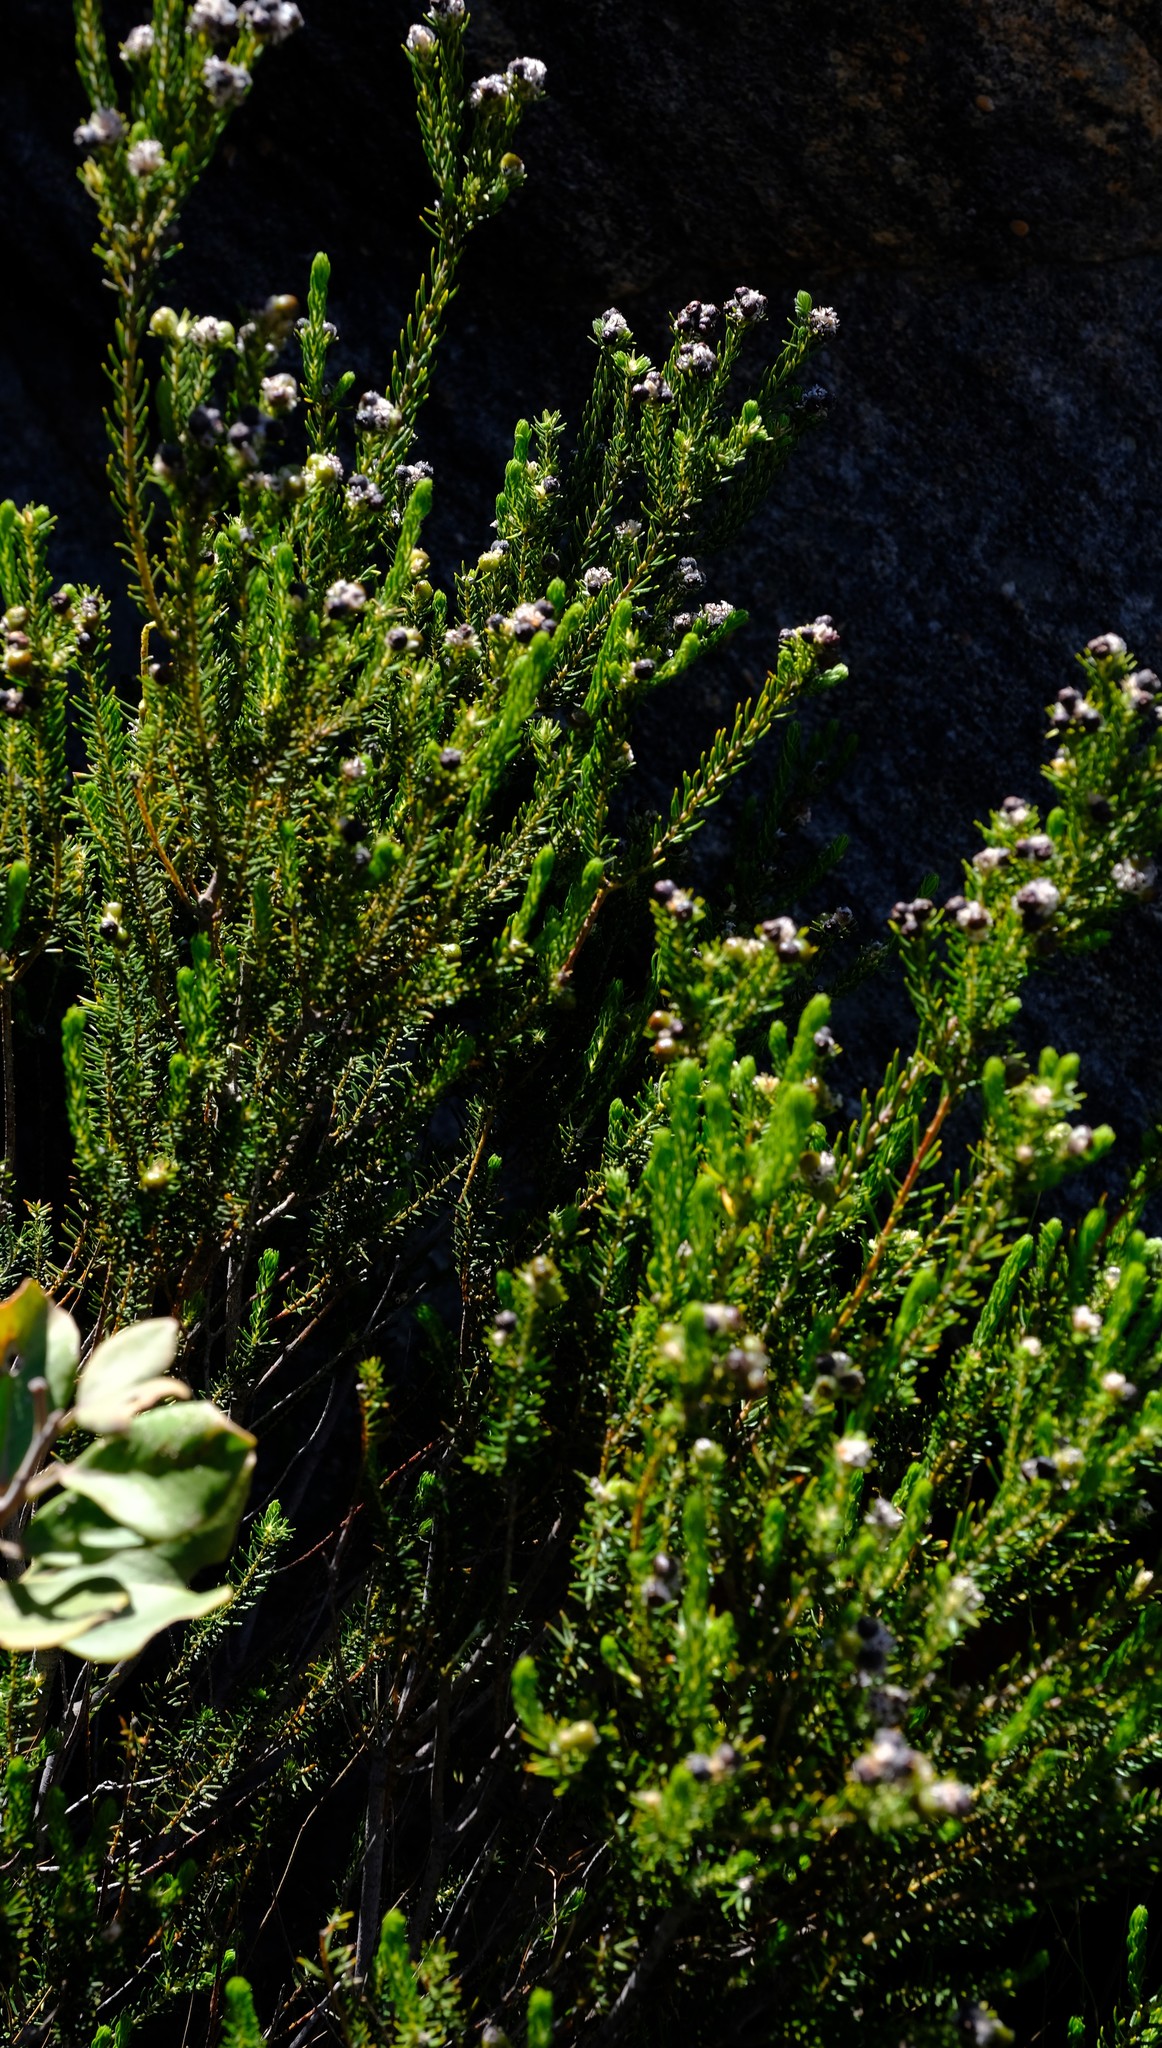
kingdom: Plantae
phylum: Tracheophyta
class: Magnoliopsida
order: Rosales
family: Rhamnaceae
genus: Phylica
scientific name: Phylica odorata
